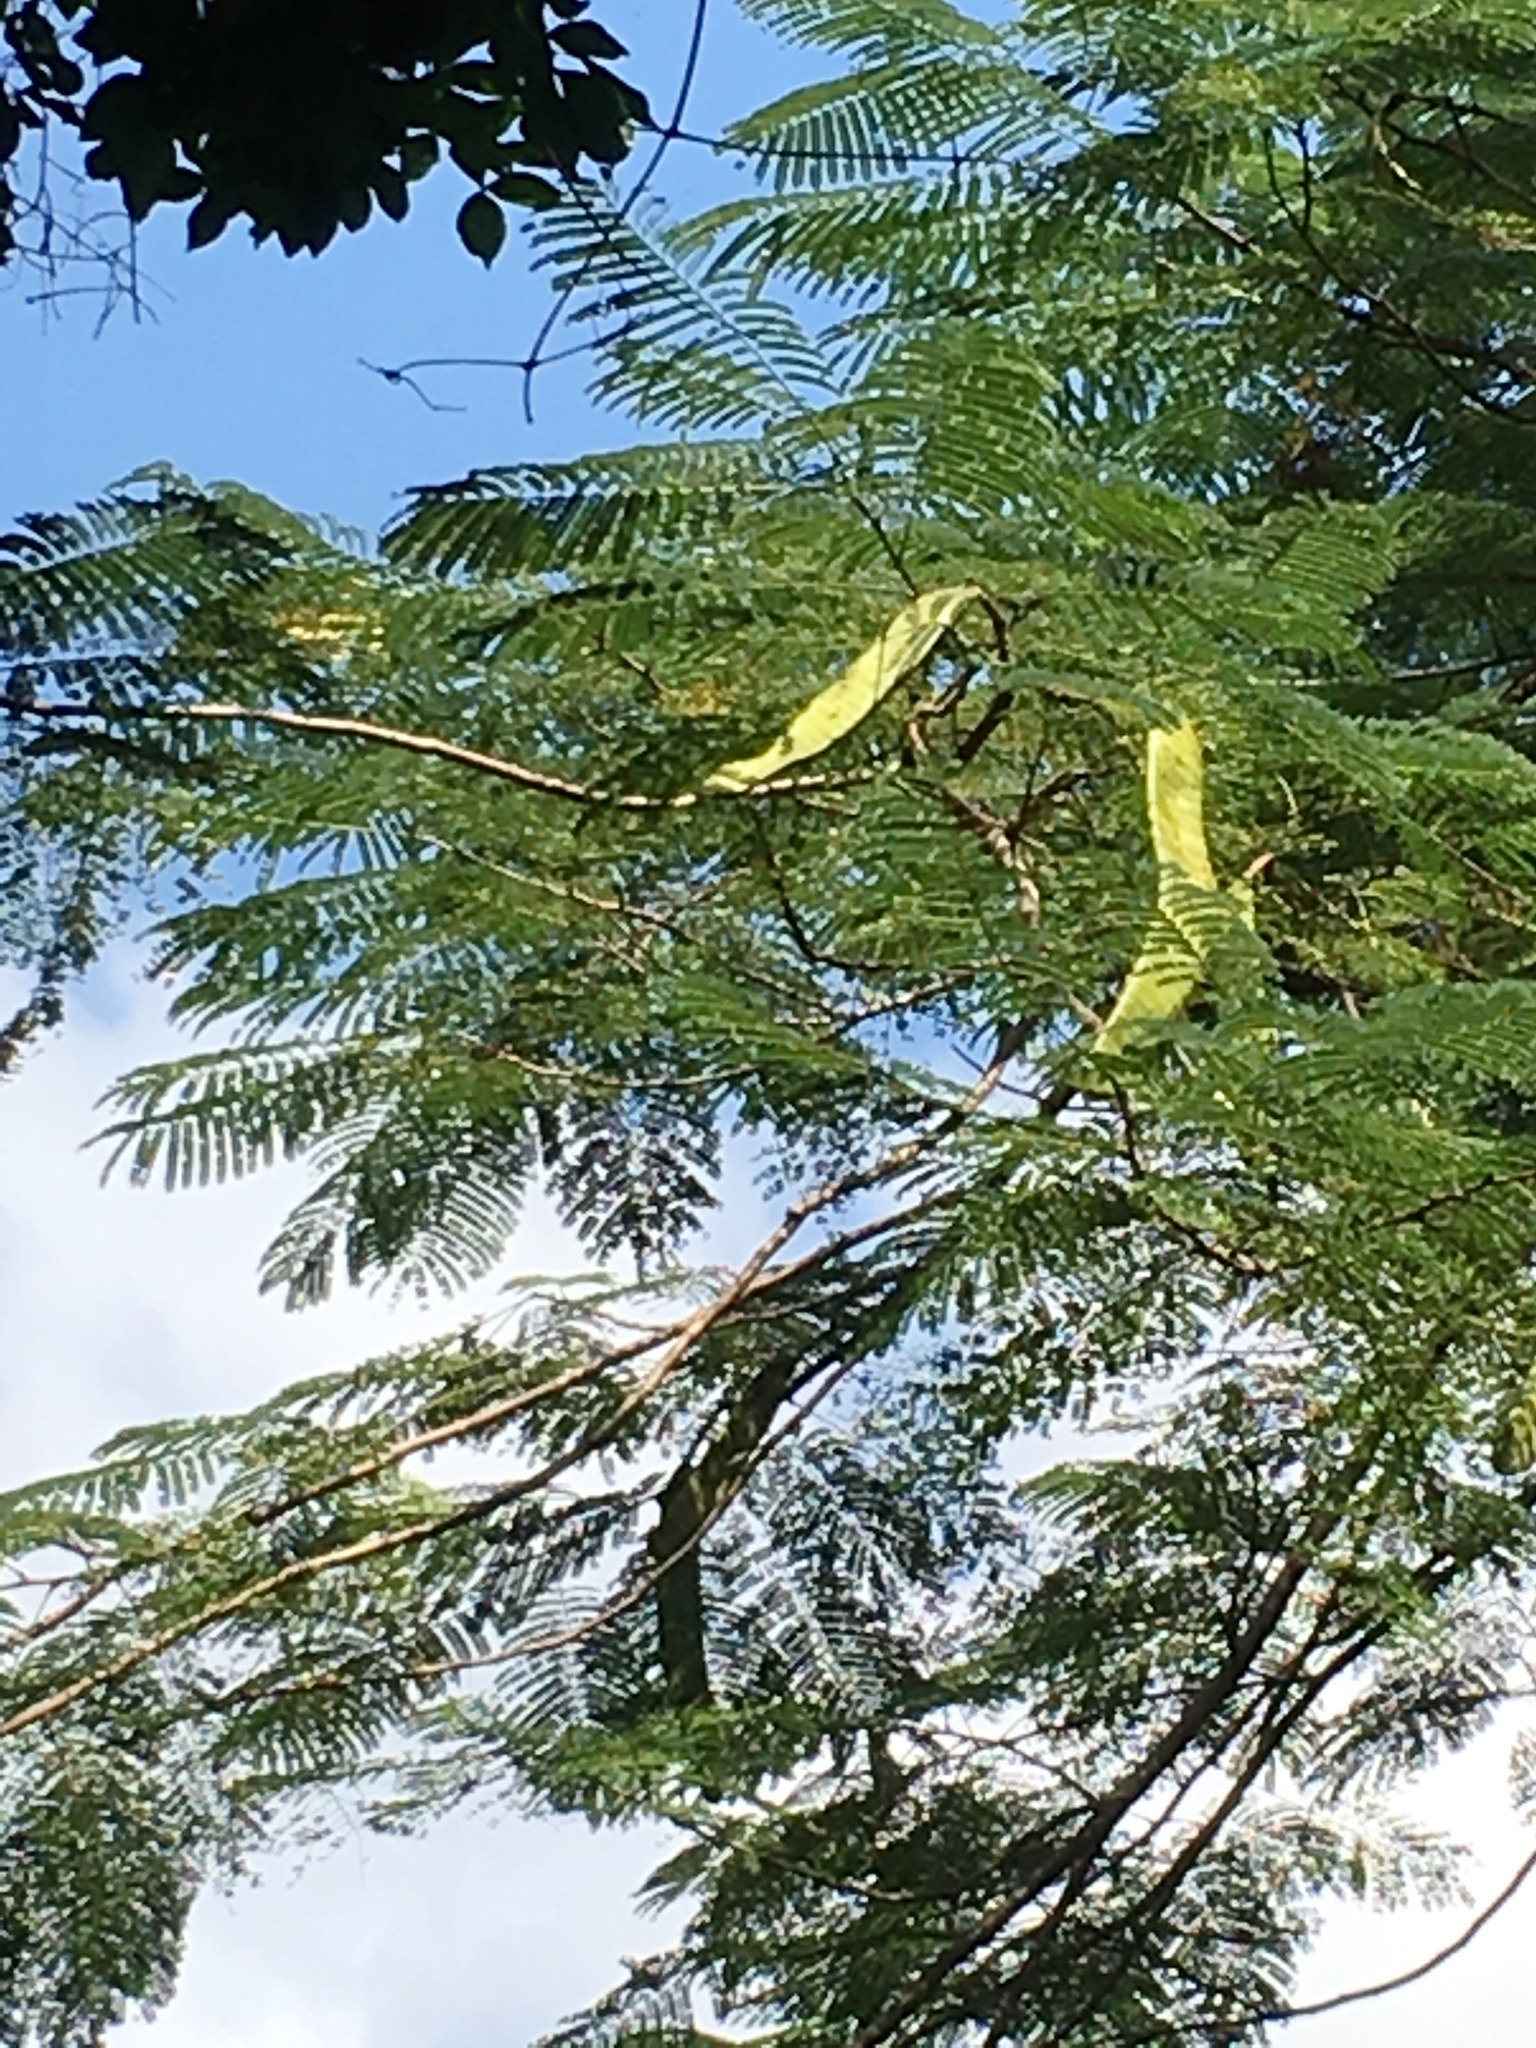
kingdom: Plantae
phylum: Tracheophyta
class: Magnoliopsida
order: Fabales
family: Fabaceae
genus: Delonix
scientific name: Delonix regia
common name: Royal poinciana
